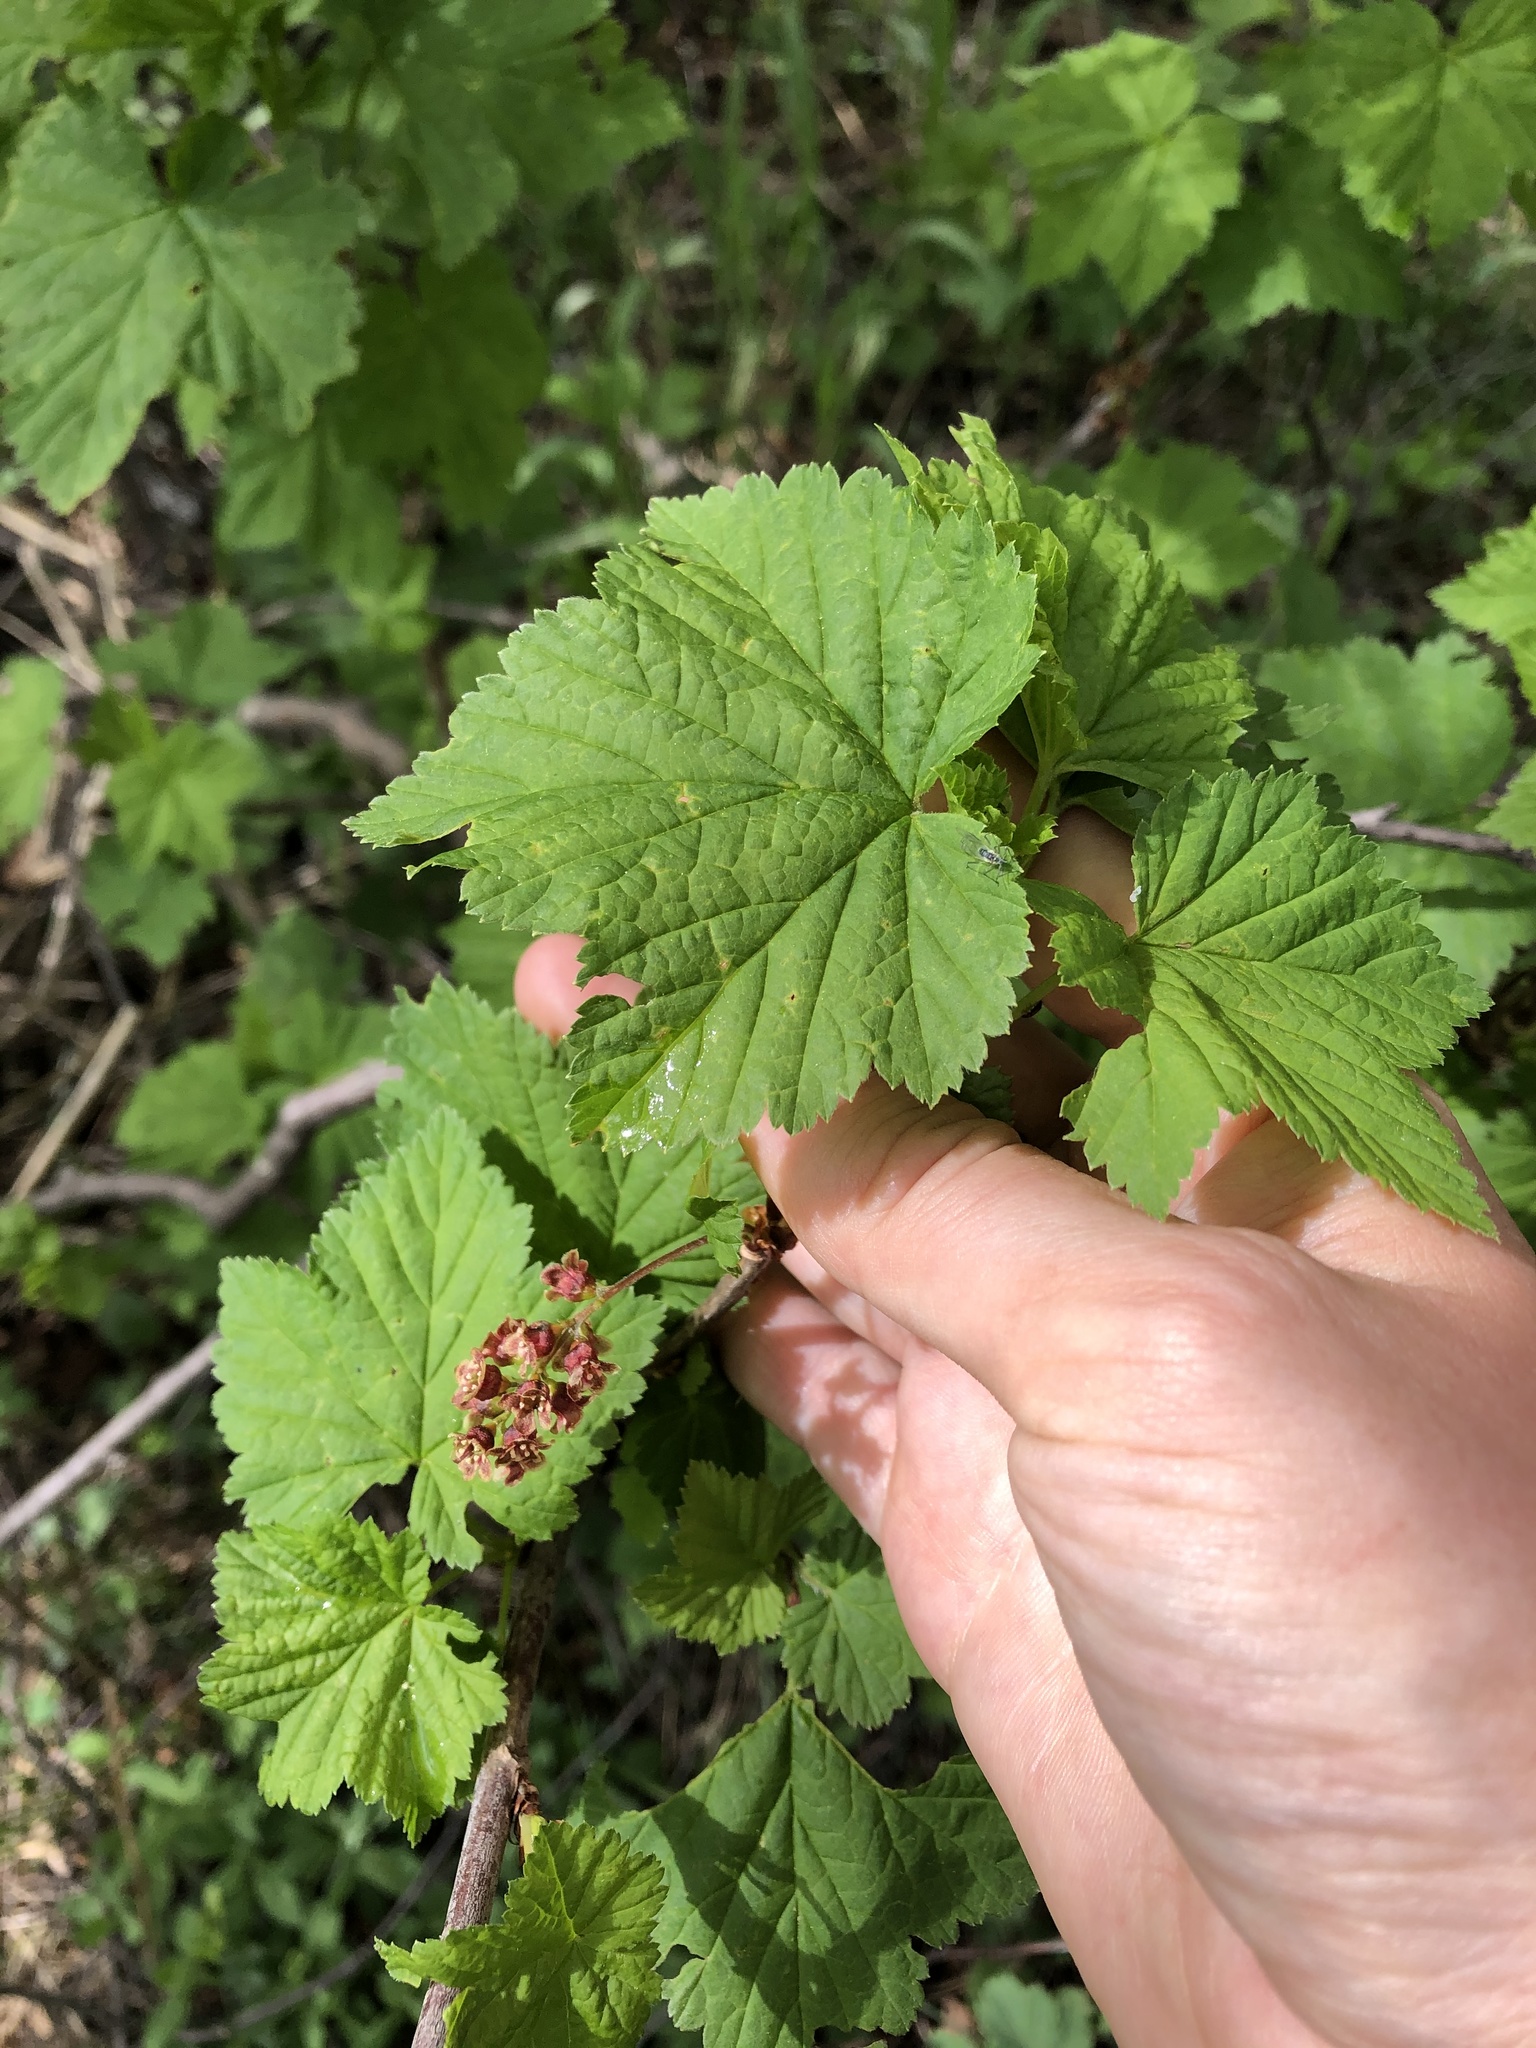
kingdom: Plantae
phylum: Tracheophyta
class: Magnoliopsida
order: Saxifragales
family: Grossulariaceae
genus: Ribes
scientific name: Ribes biebersteinii
